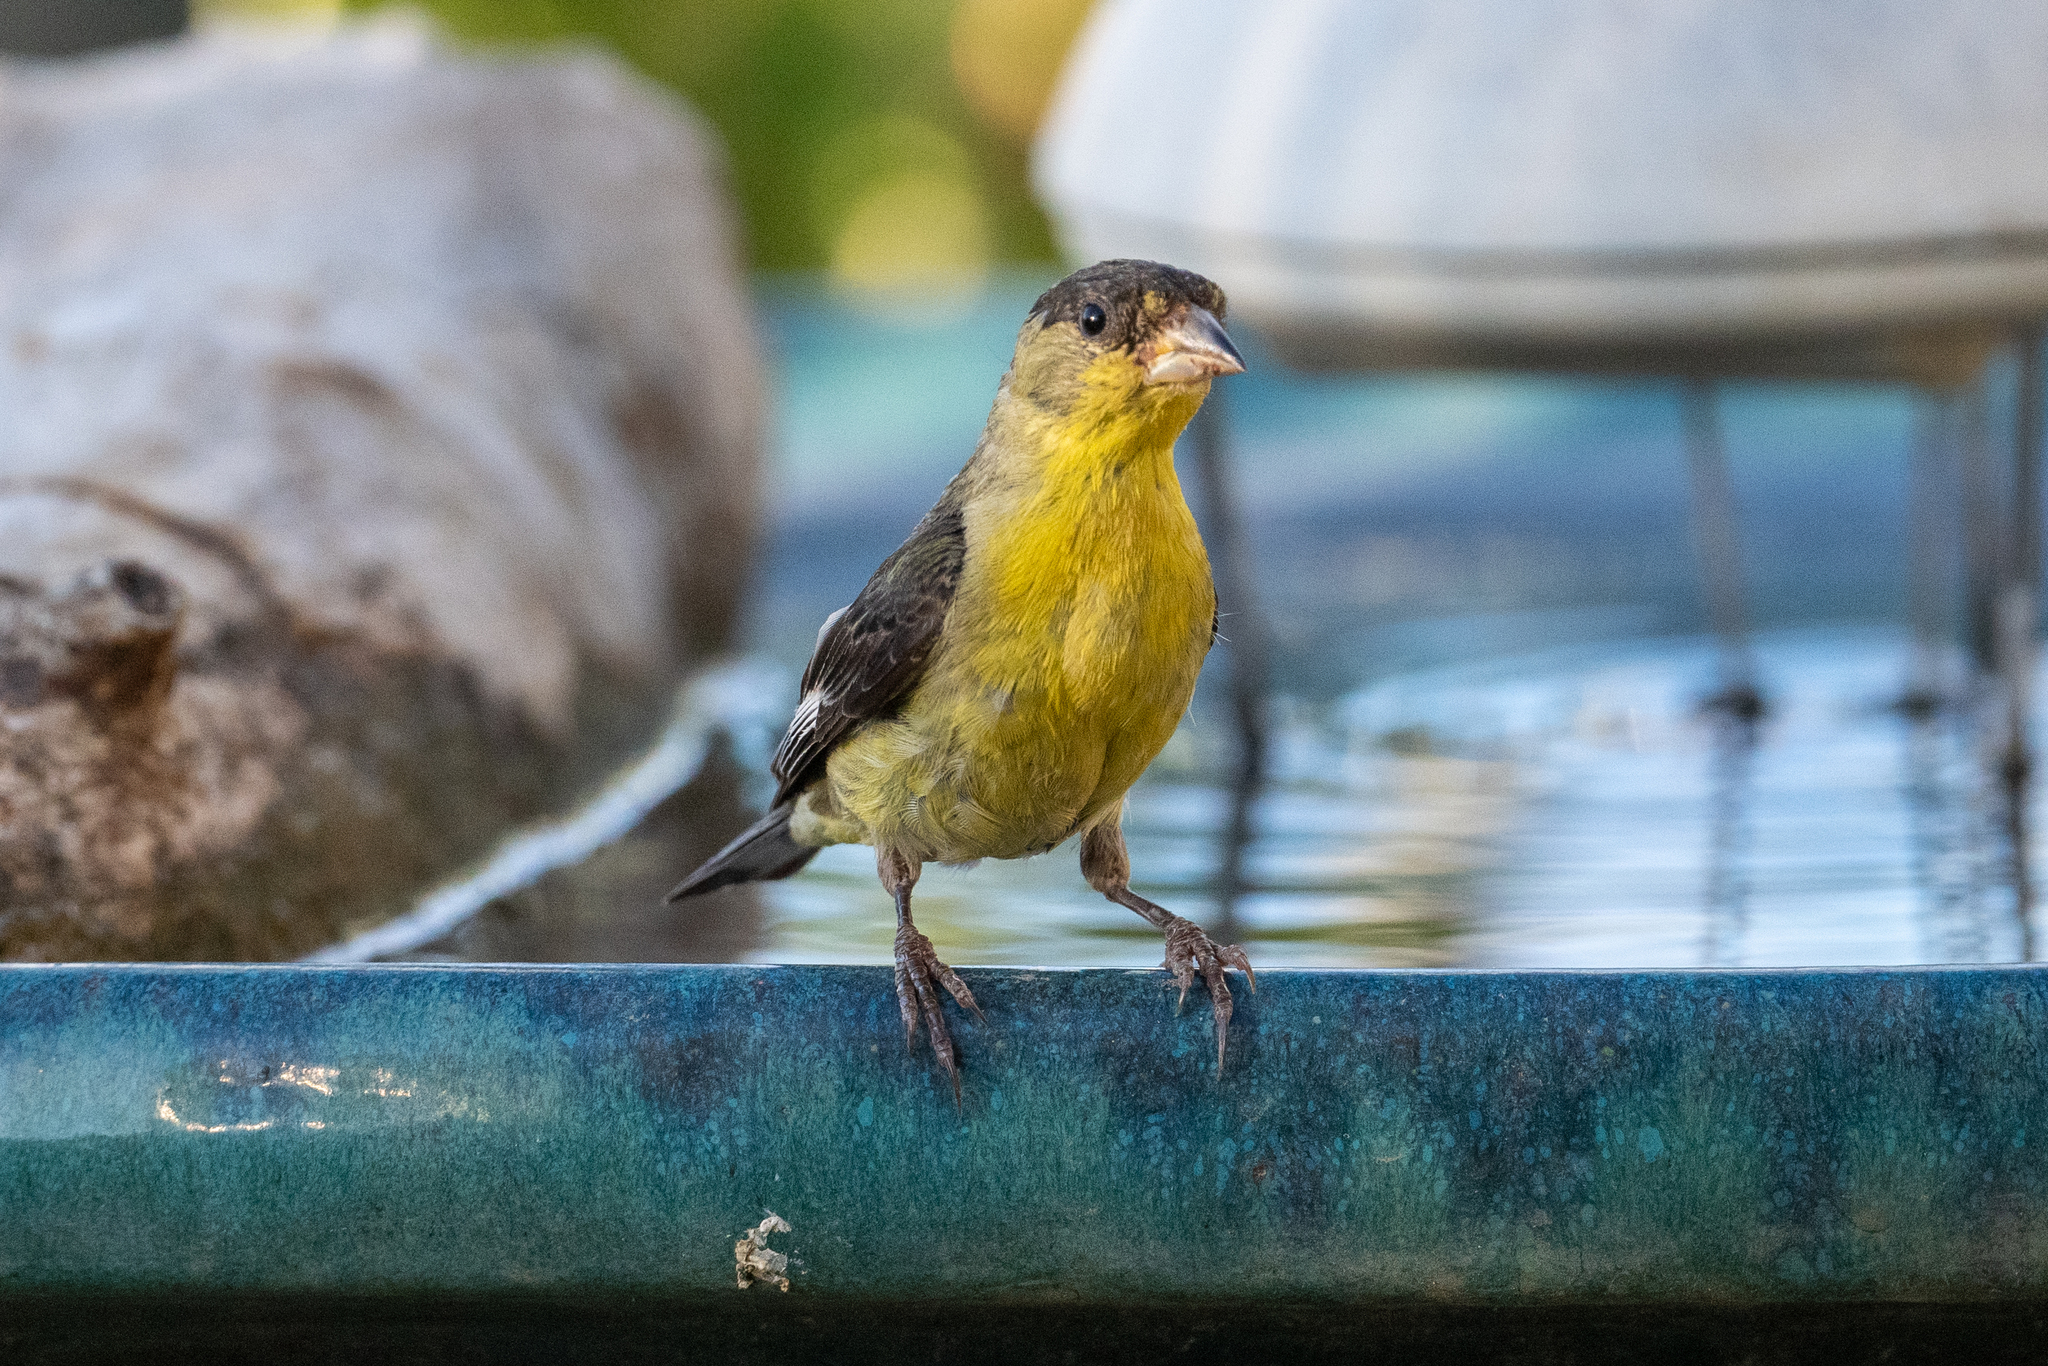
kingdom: Animalia
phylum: Chordata
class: Aves
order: Passeriformes
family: Fringillidae
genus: Spinus
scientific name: Spinus psaltria
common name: Lesser goldfinch
